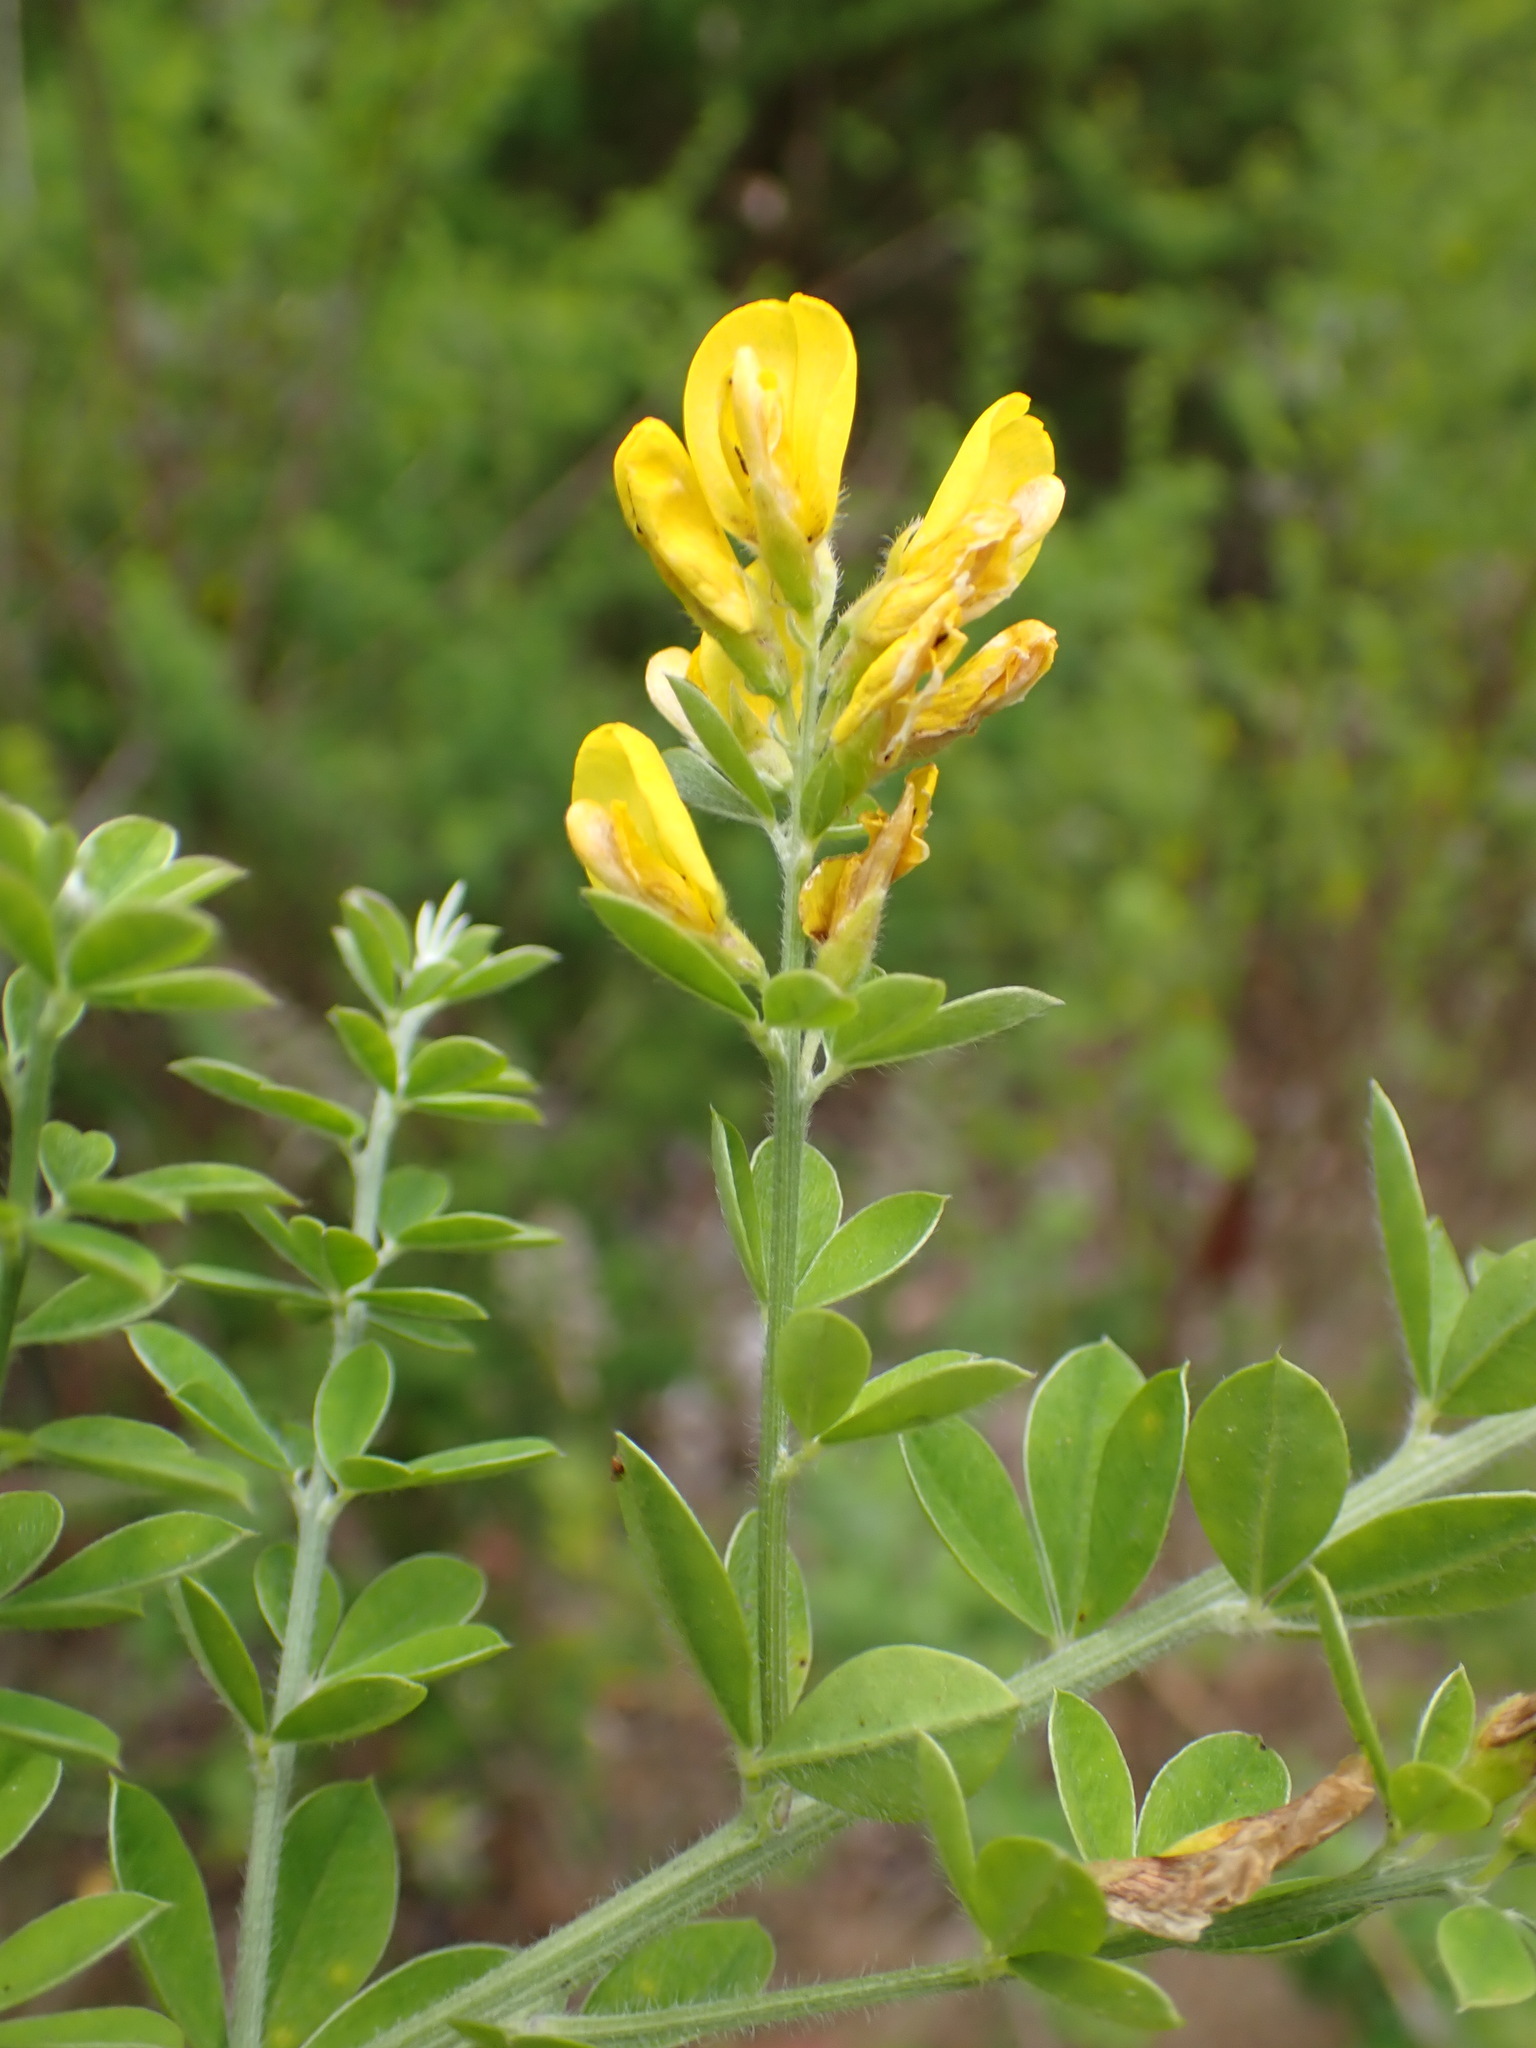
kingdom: Plantae
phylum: Tracheophyta
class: Magnoliopsida
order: Fabales
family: Fabaceae
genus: Genista
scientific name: Genista monspessulana
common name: Montpellier broom
